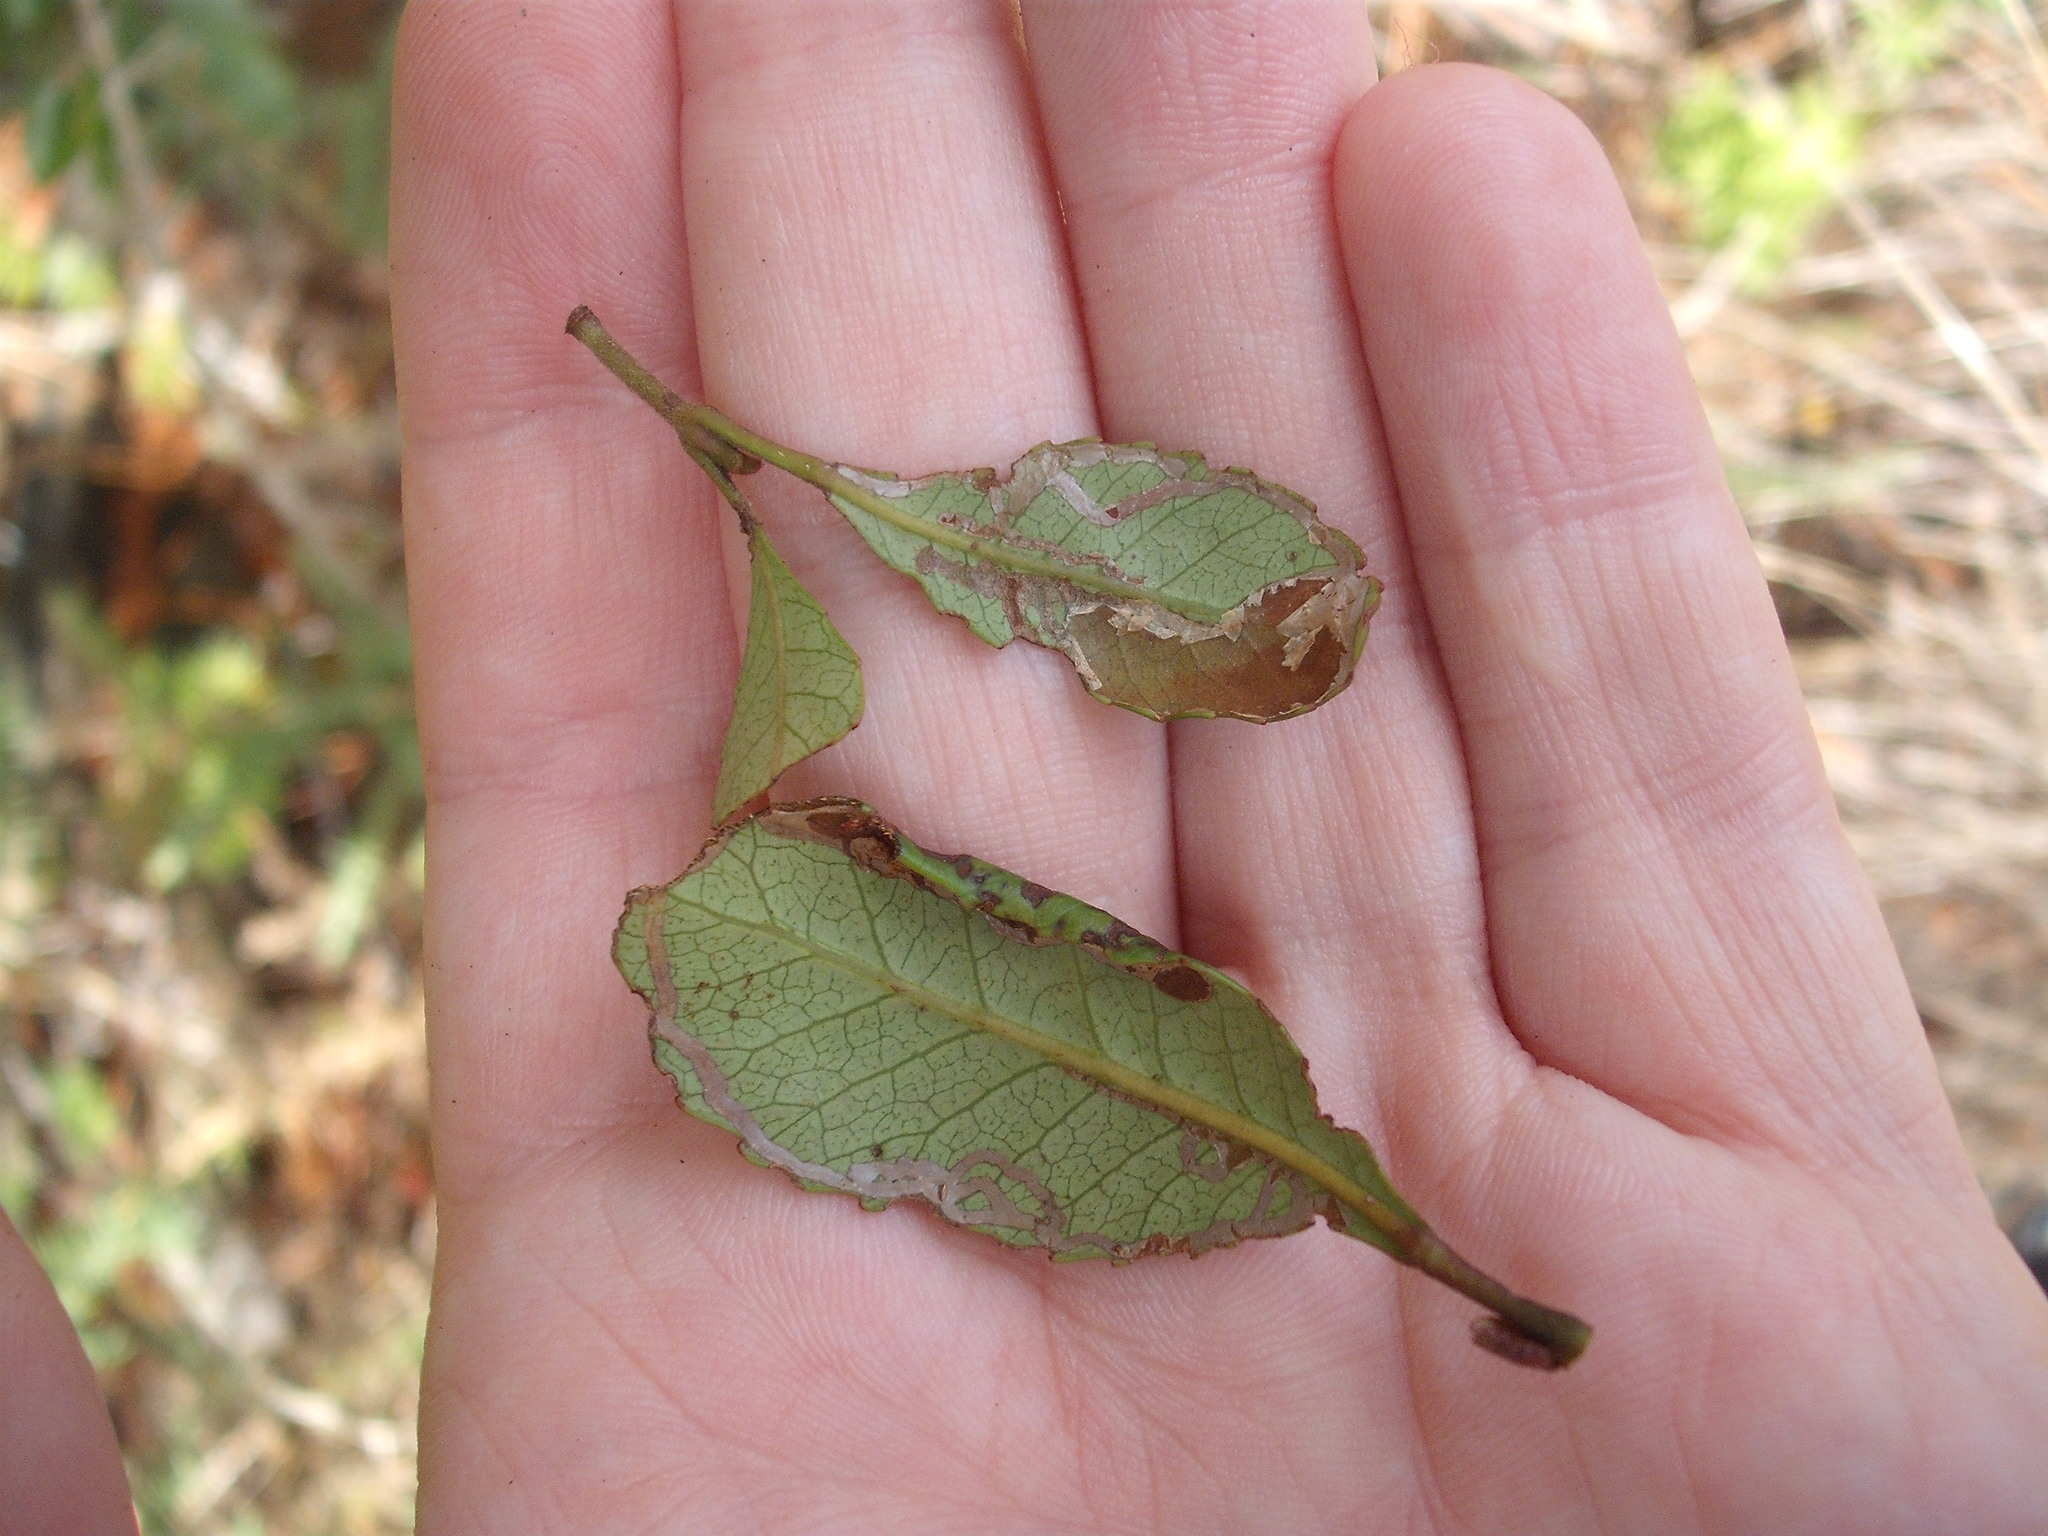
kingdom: Animalia
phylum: Arthropoda
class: Insecta
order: Lepidoptera
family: Gracillariidae
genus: Caloptilia
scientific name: Caloptilia chrysitis
